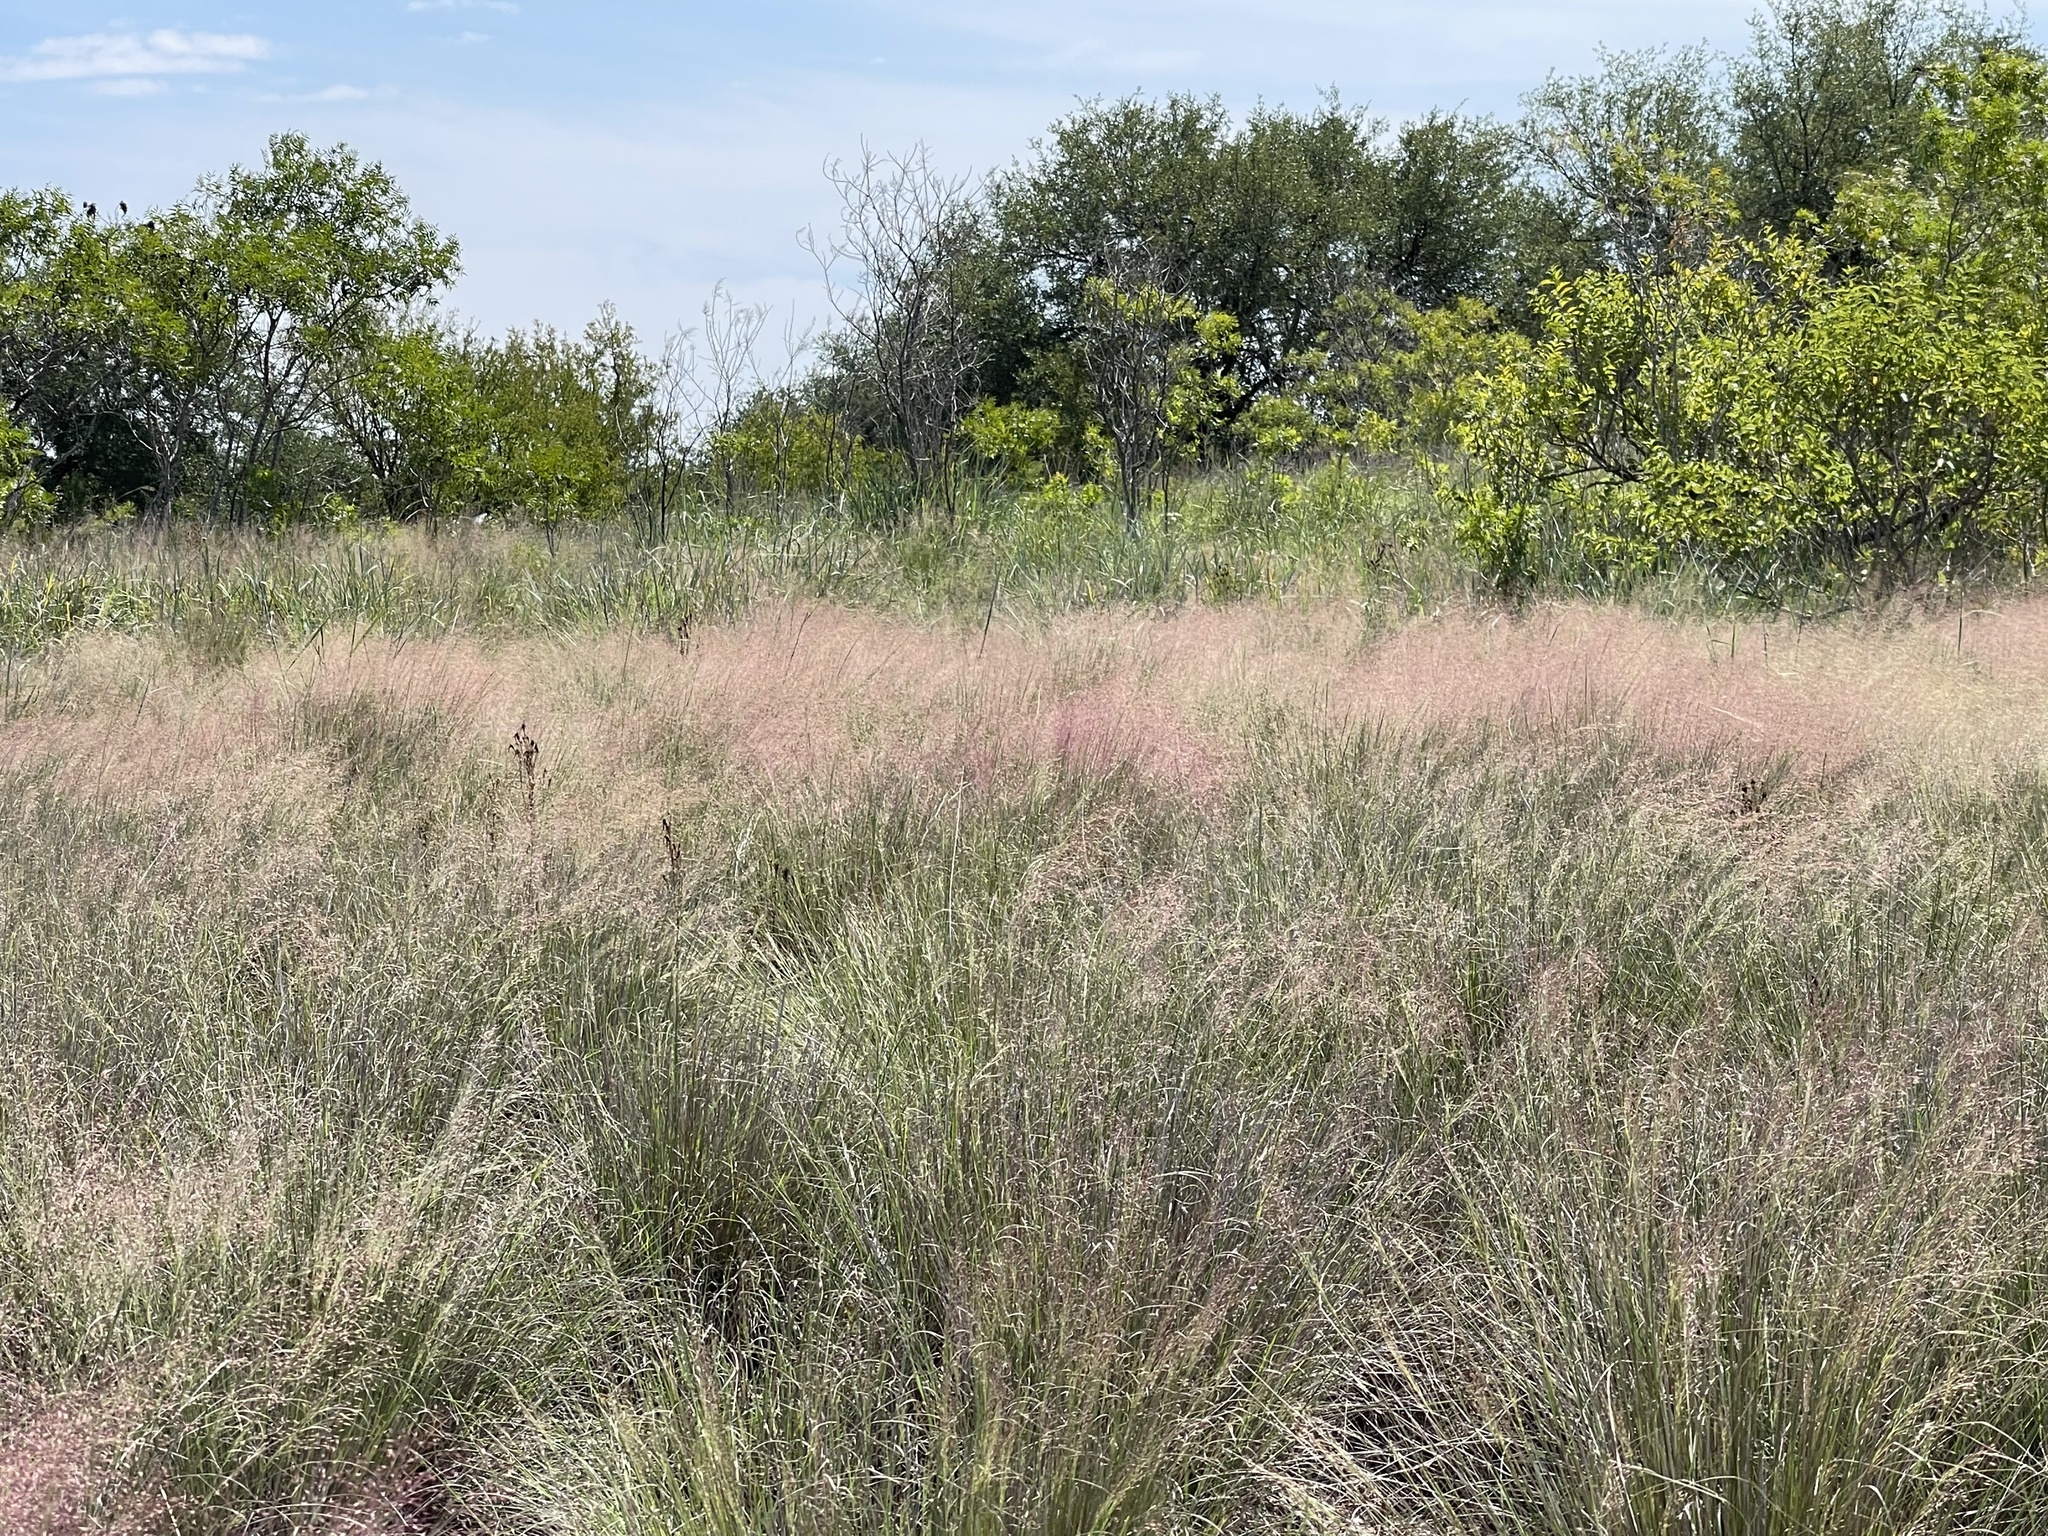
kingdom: Plantae
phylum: Tracheophyta
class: Liliopsida
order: Poales
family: Poaceae
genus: Muhlenbergia
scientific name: Muhlenbergia reverchonii
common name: Seep muhly
